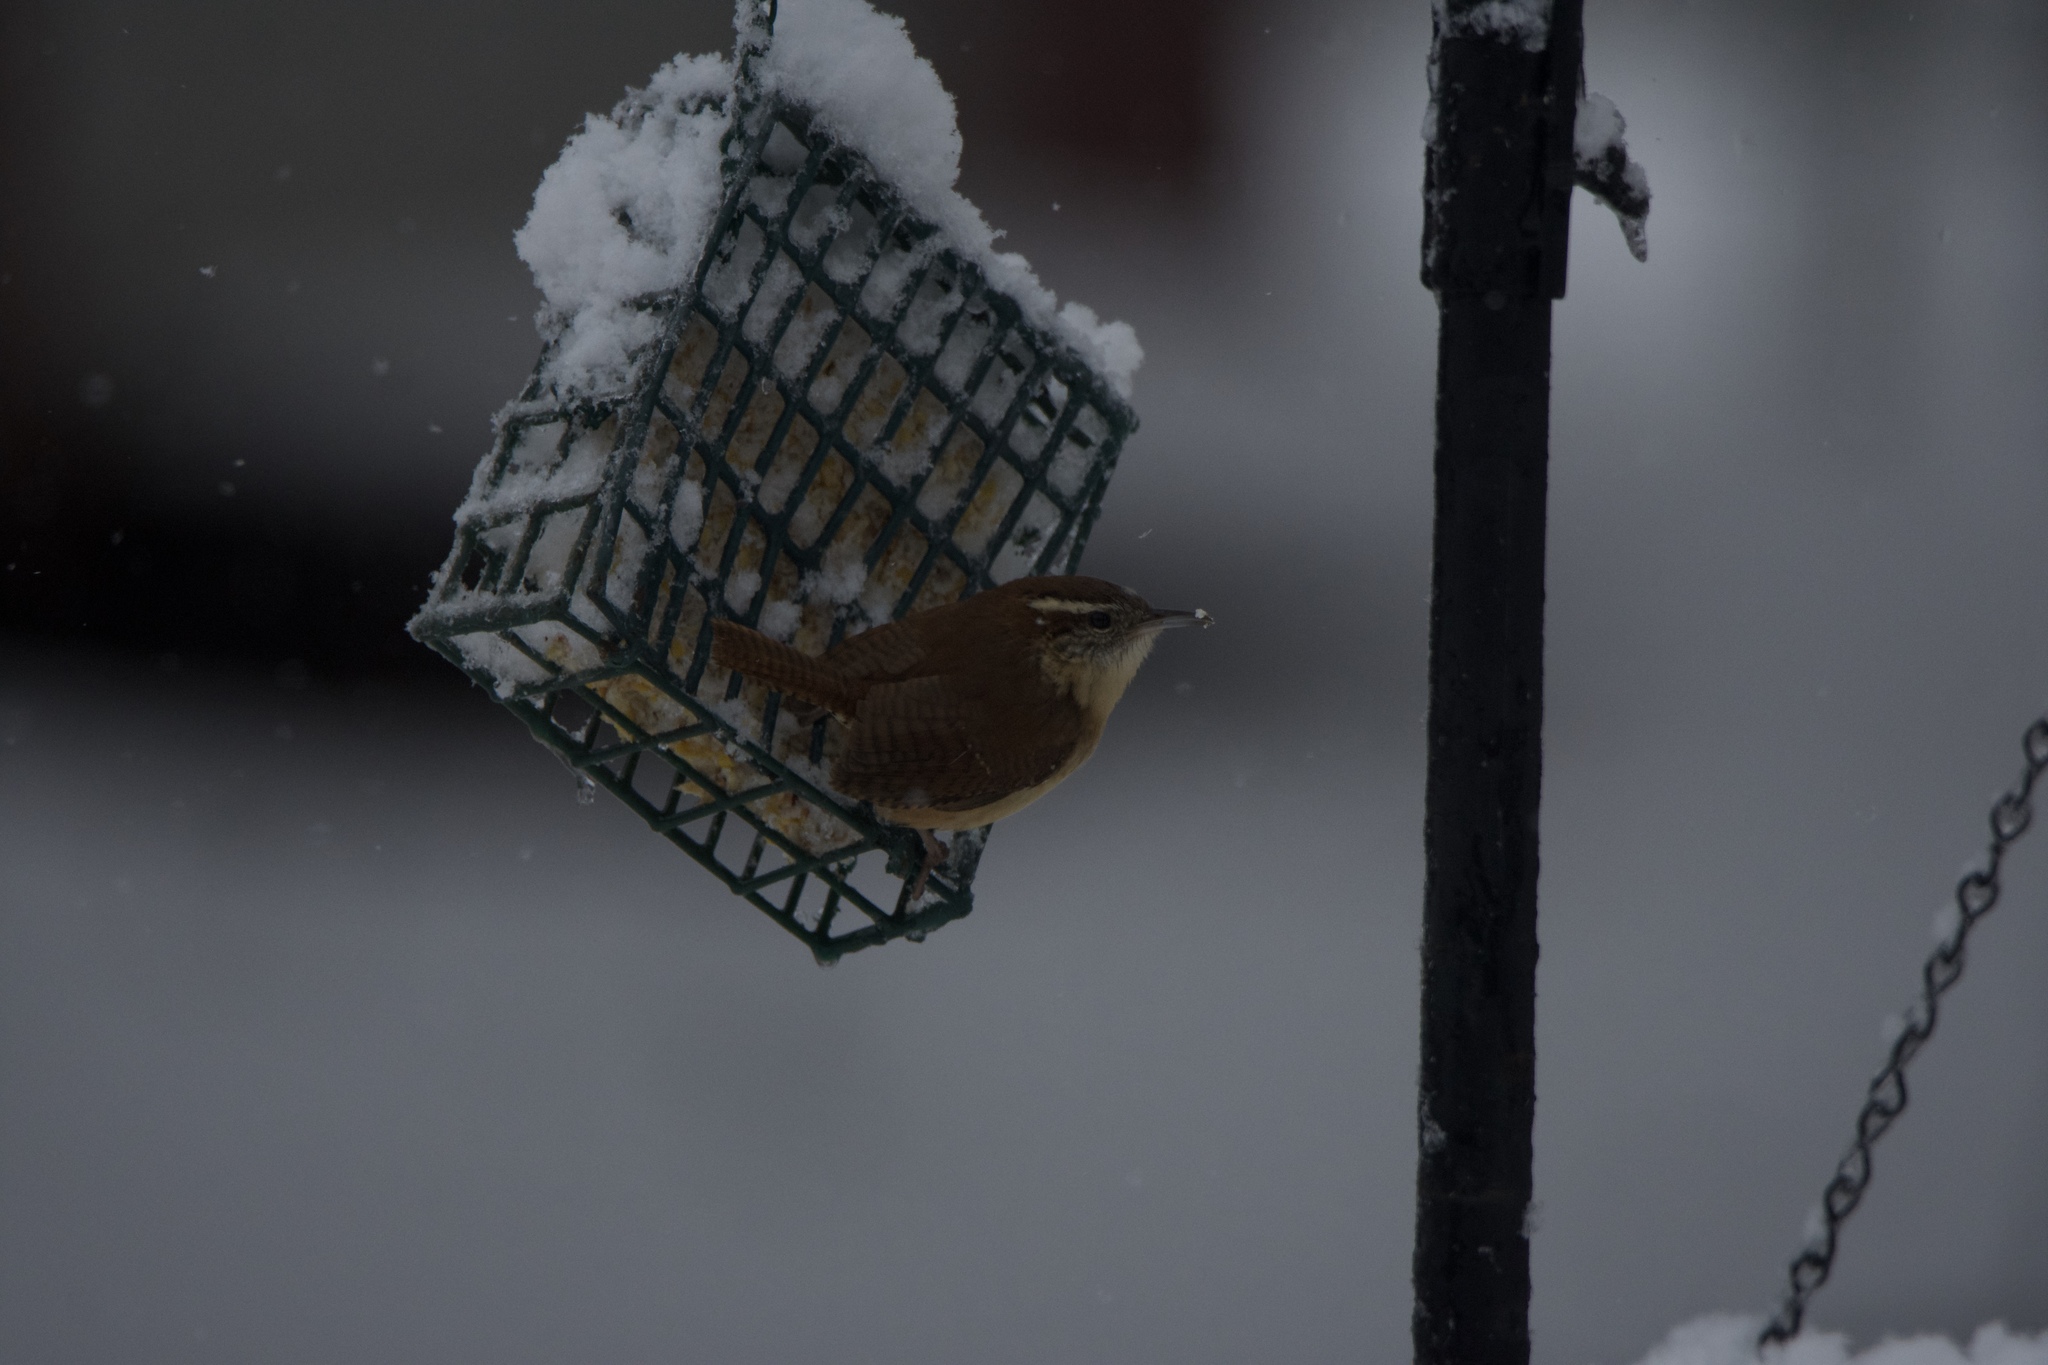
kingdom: Animalia
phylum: Chordata
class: Aves
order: Passeriformes
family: Troglodytidae
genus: Thryothorus
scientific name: Thryothorus ludovicianus
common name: Carolina wren
